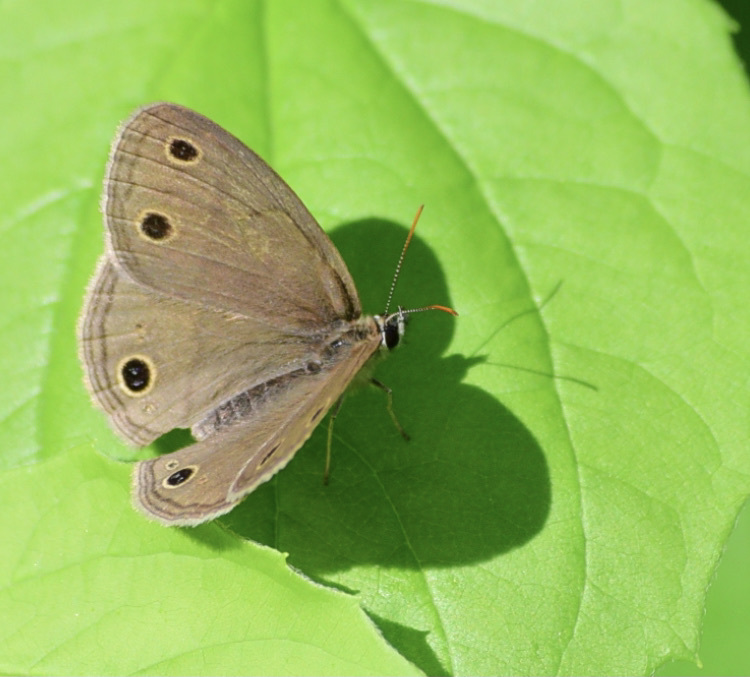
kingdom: Animalia
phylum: Arthropoda
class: Insecta
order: Lepidoptera
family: Nymphalidae
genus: Euptychia
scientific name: Euptychia cymela
